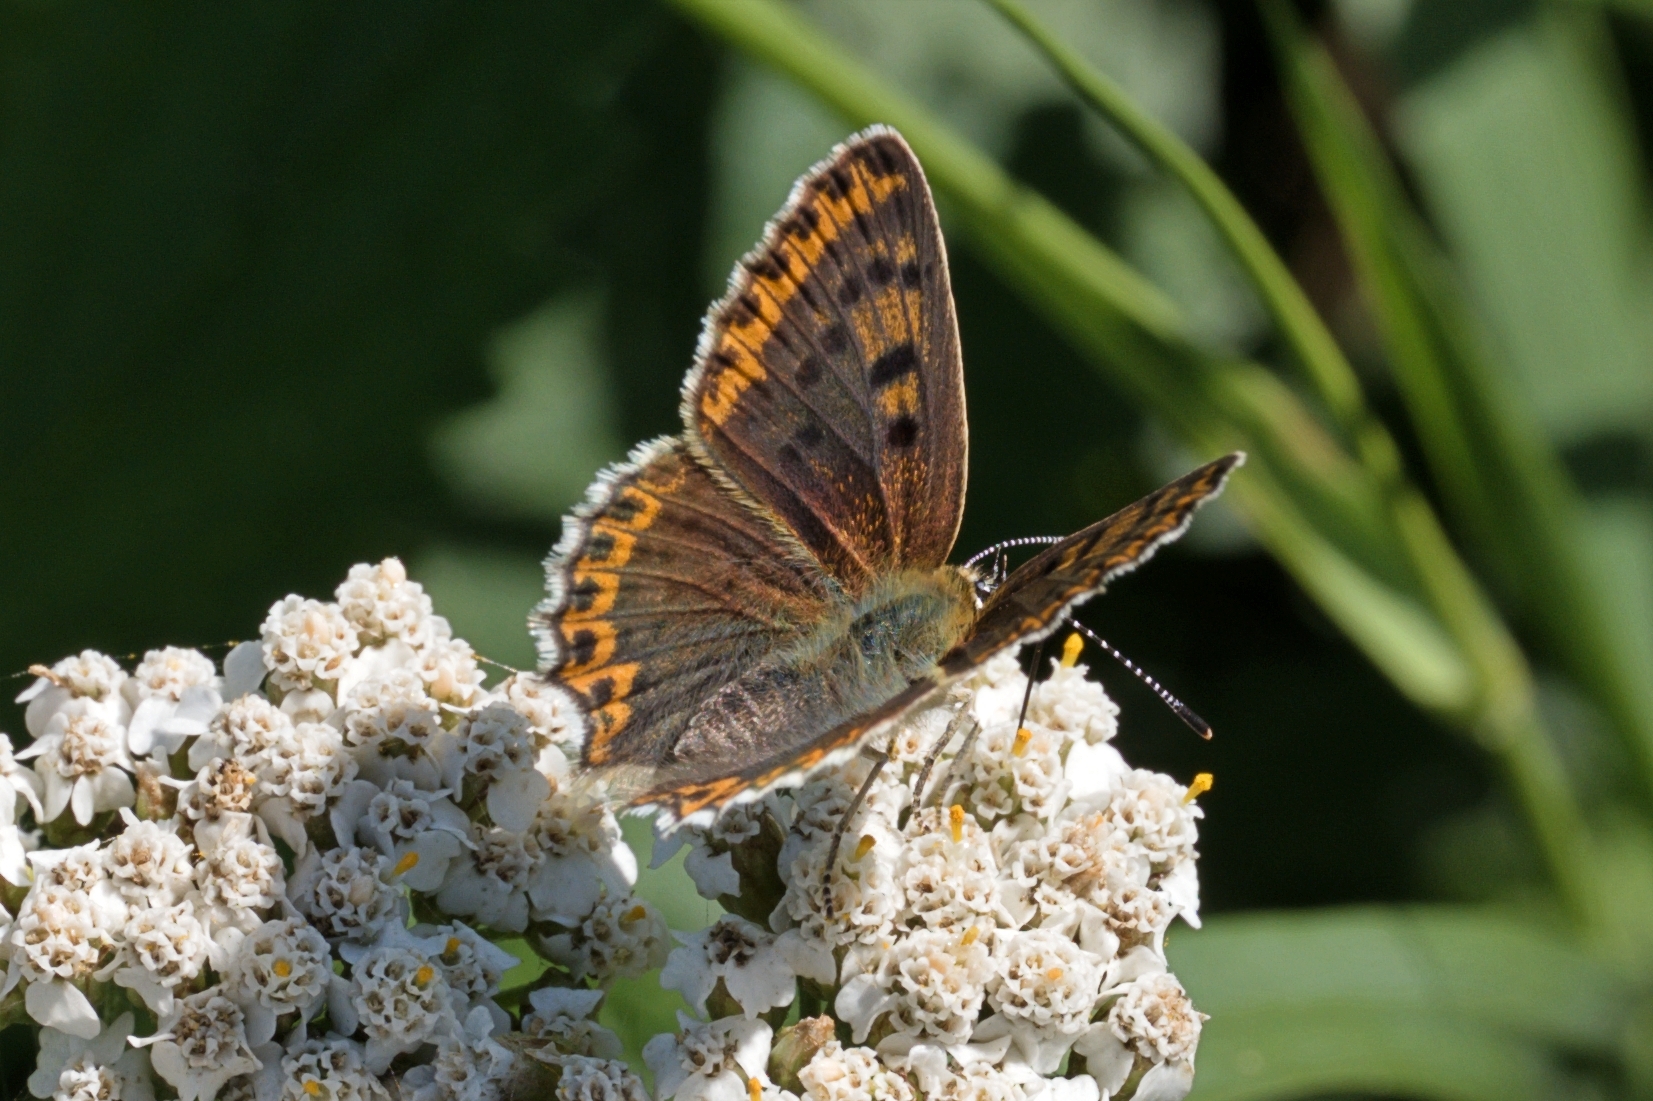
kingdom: Animalia
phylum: Arthropoda
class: Insecta
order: Lepidoptera
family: Lycaenidae
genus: Loweia
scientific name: Loweia tityrus
